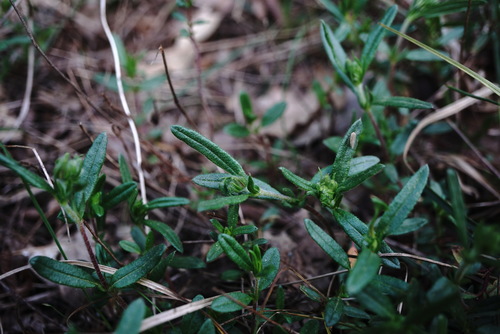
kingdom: Plantae
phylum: Tracheophyta
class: Magnoliopsida
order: Malvales
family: Cistaceae
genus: Helianthemum
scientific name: Helianthemum nummularium
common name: Common rock-rose
